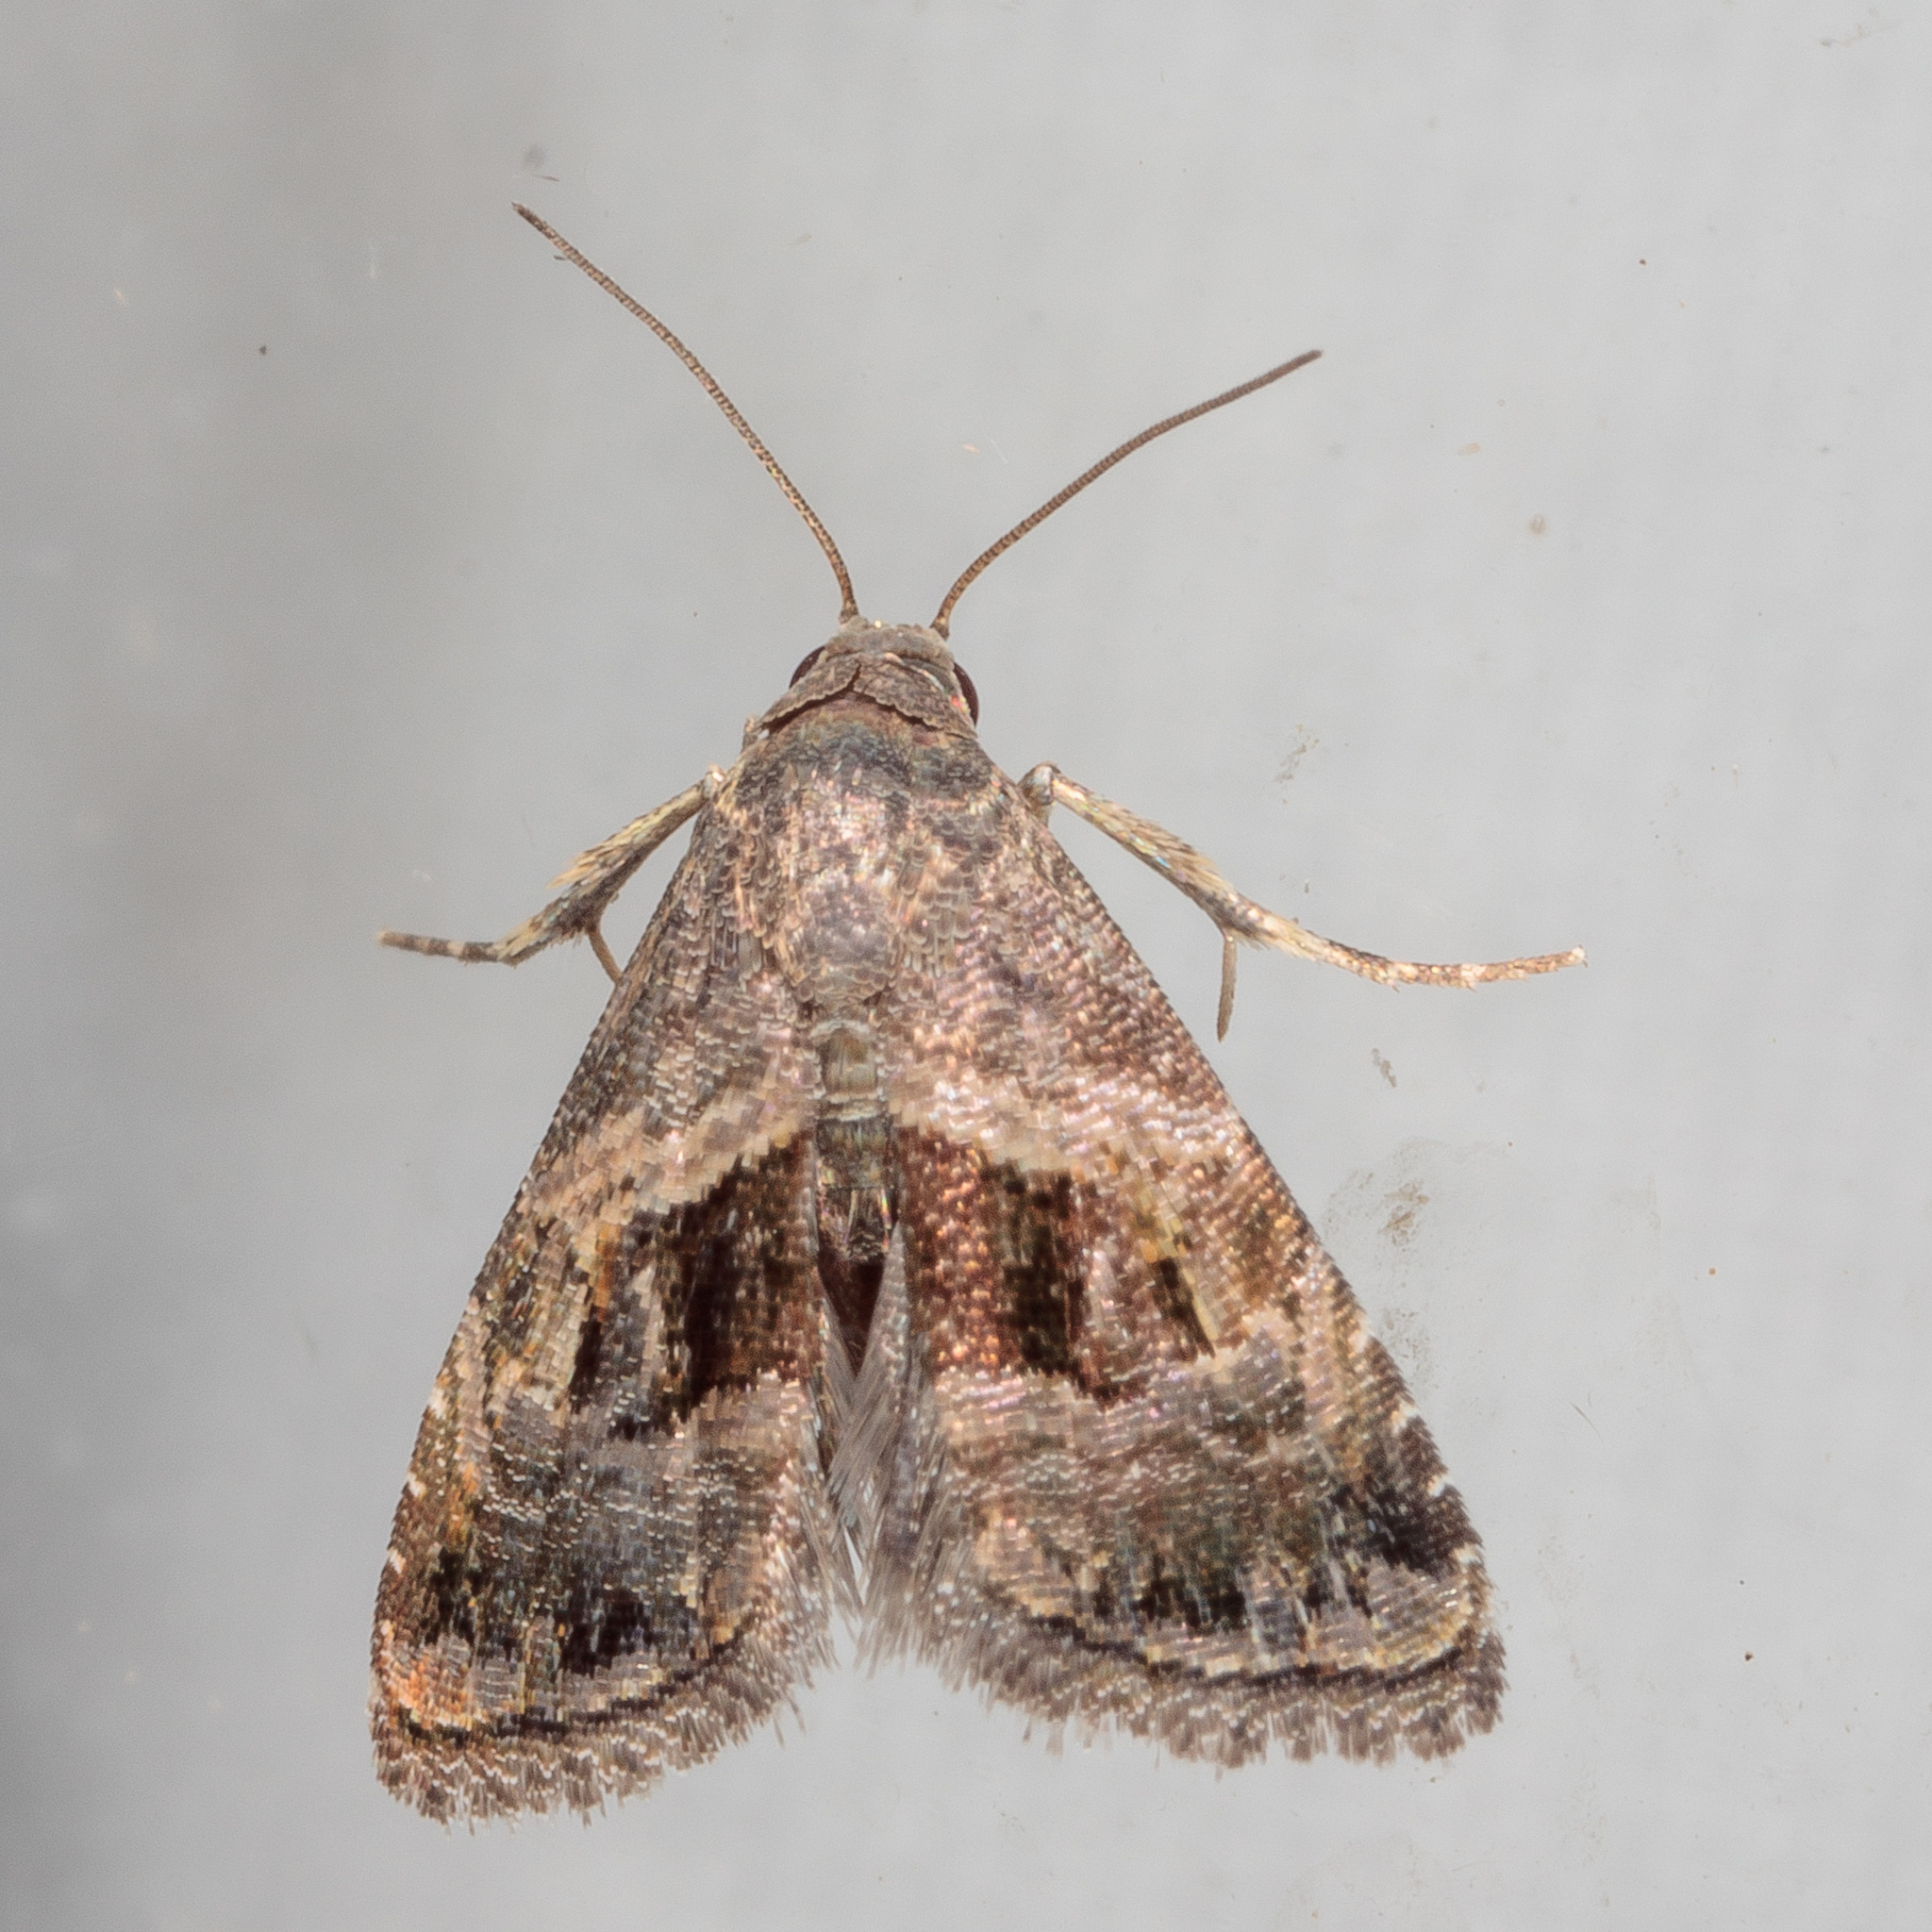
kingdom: Animalia
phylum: Arthropoda
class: Insecta
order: Lepidoptera
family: Noctuidae
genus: Tripudia
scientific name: Tripudia quadrifera
